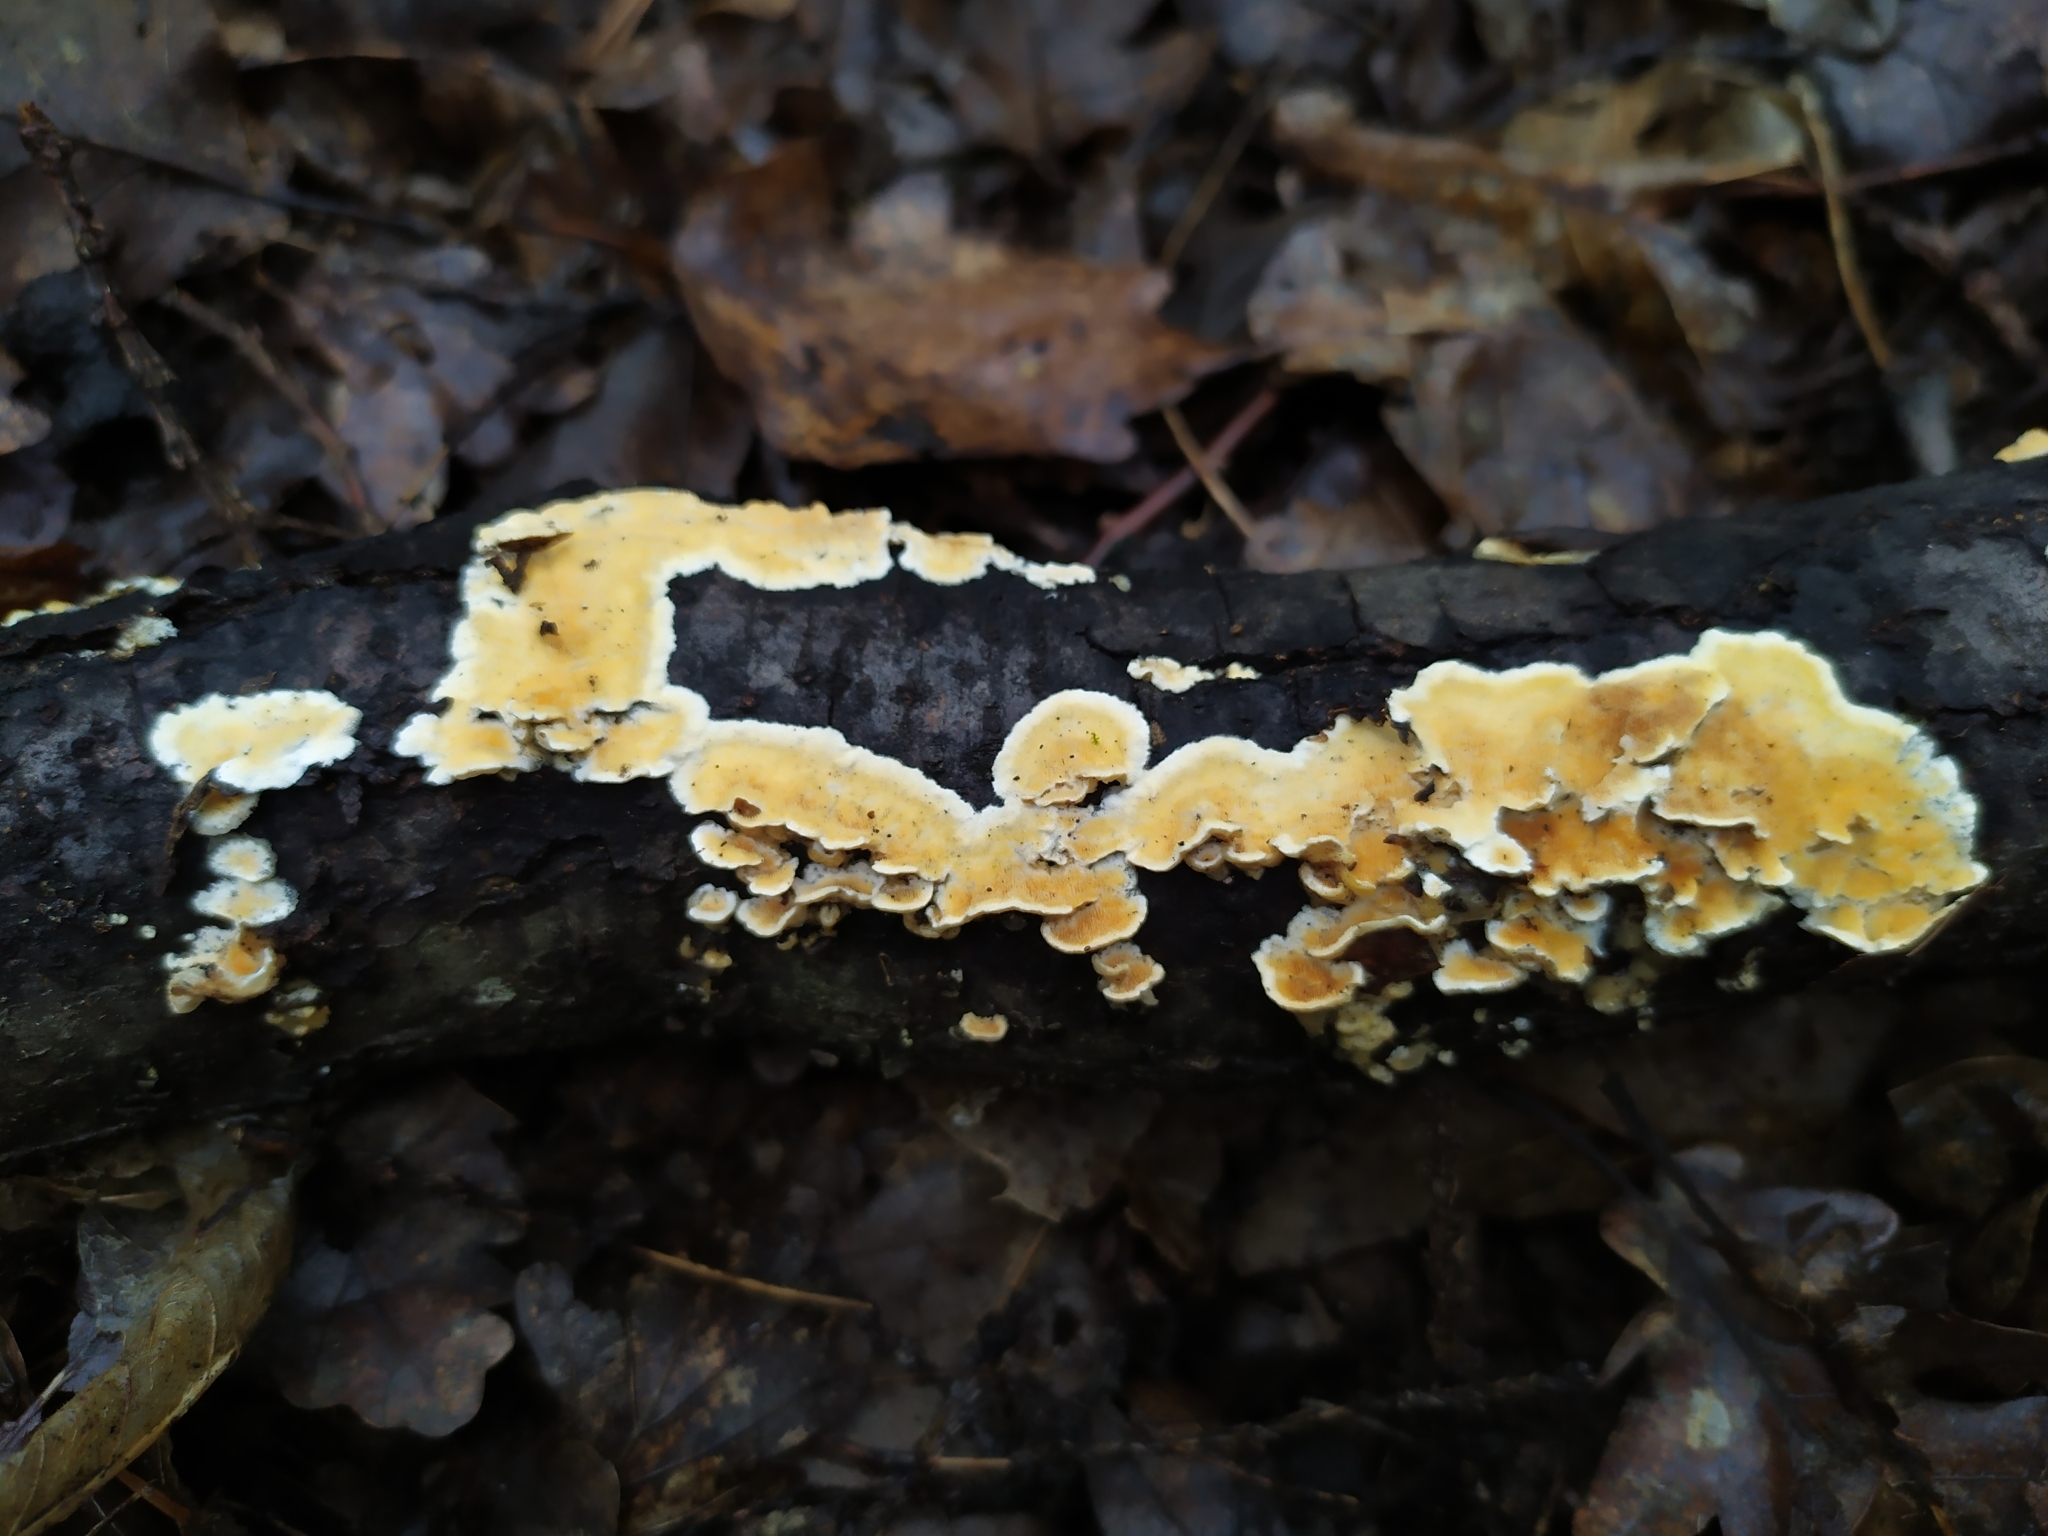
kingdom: Fungi
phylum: Basidiomycota
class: Agaricomycetes
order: Polyporales
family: Steccherinaceae
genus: Steccherinum
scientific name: Steccherinum ochraceum
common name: Ochre spreading tooth
